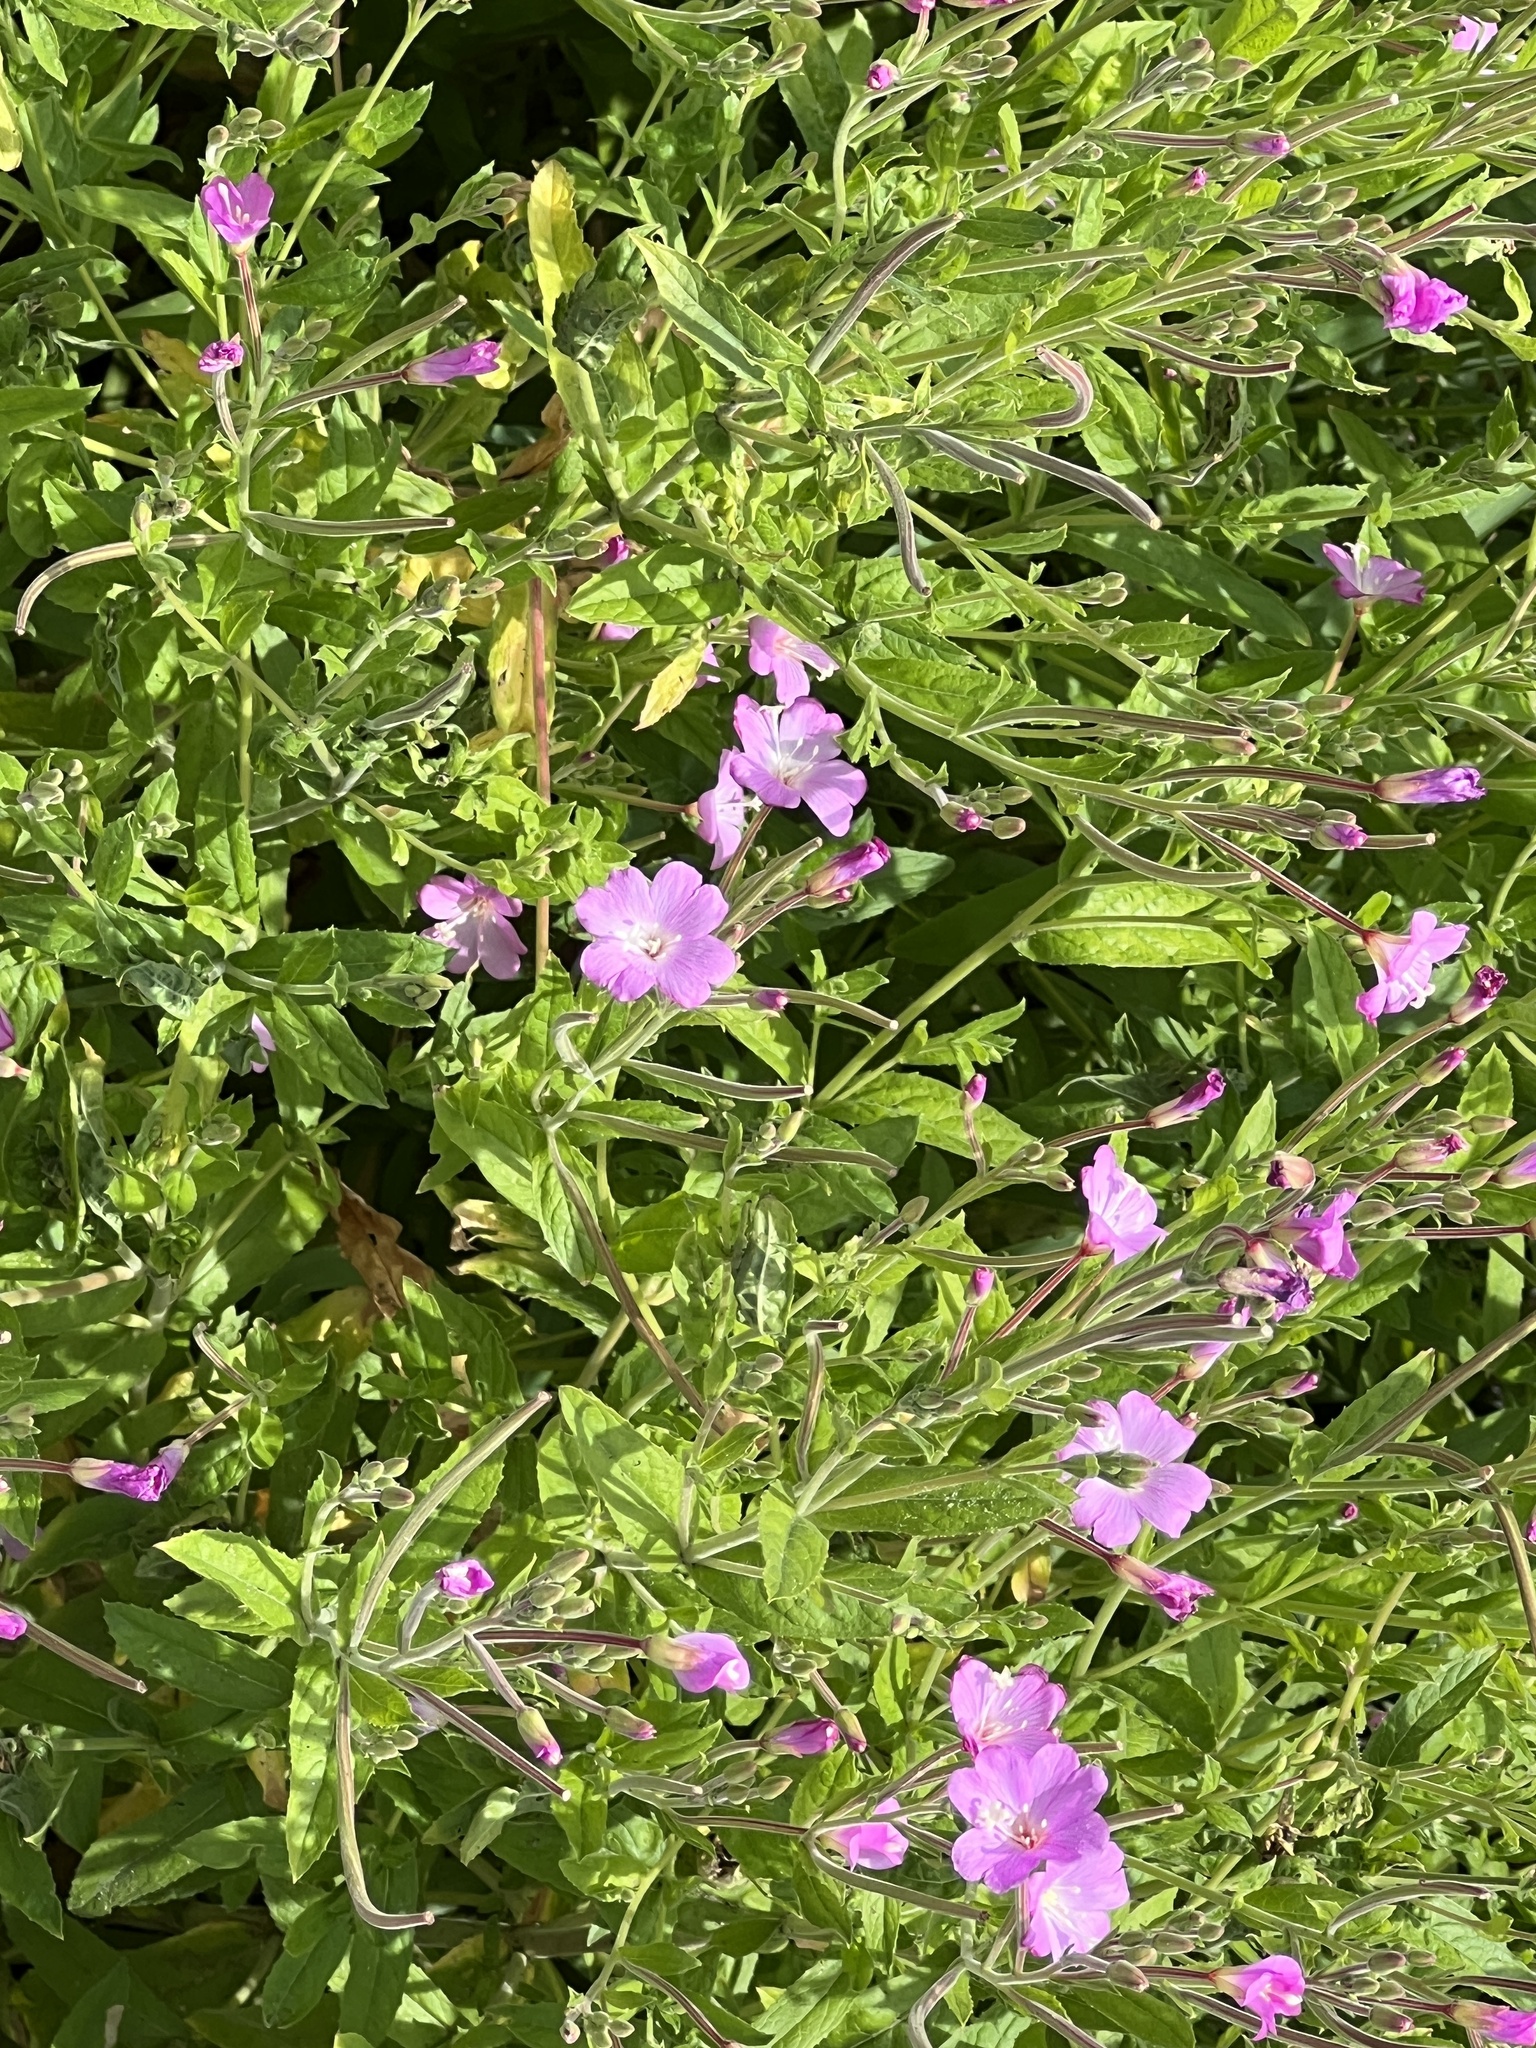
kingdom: Plantae
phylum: Tracheophyta
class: Magnoliopsida
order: Myrtales
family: Onagraceae
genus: Epilobium
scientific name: Epilobium hirsutum
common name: Great willowherb
